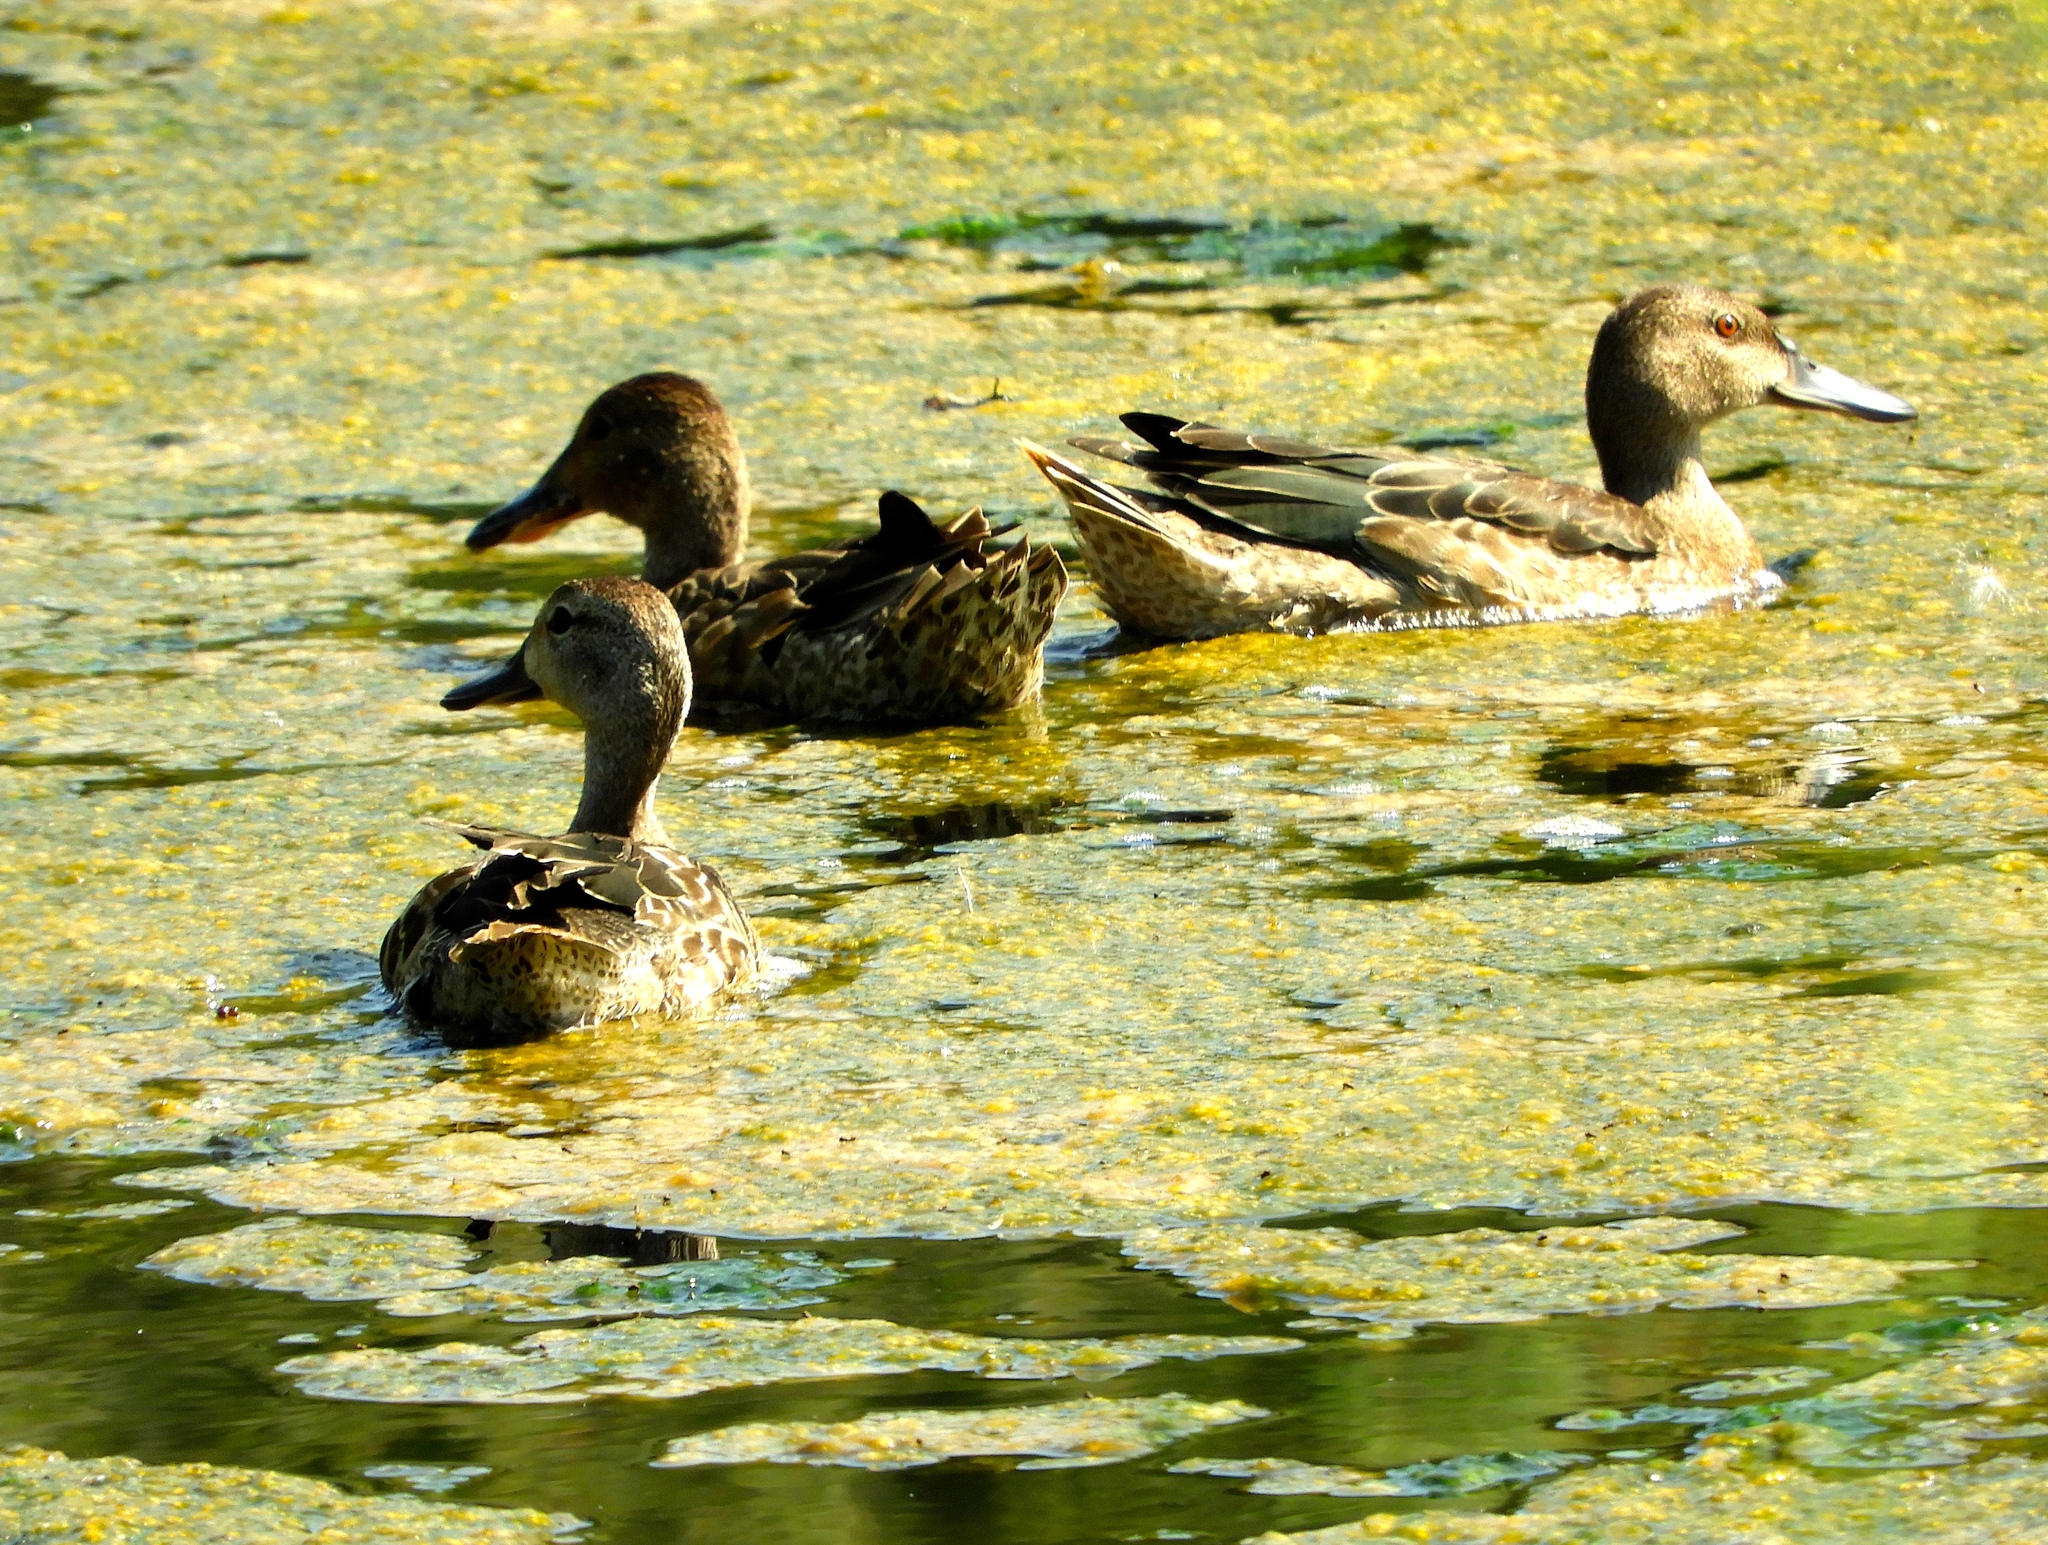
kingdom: Animalia
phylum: Chordata
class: Aves
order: Anseriformes
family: Anatidae
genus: Spatula
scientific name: Spatula clypeata
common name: Northern shoveler
